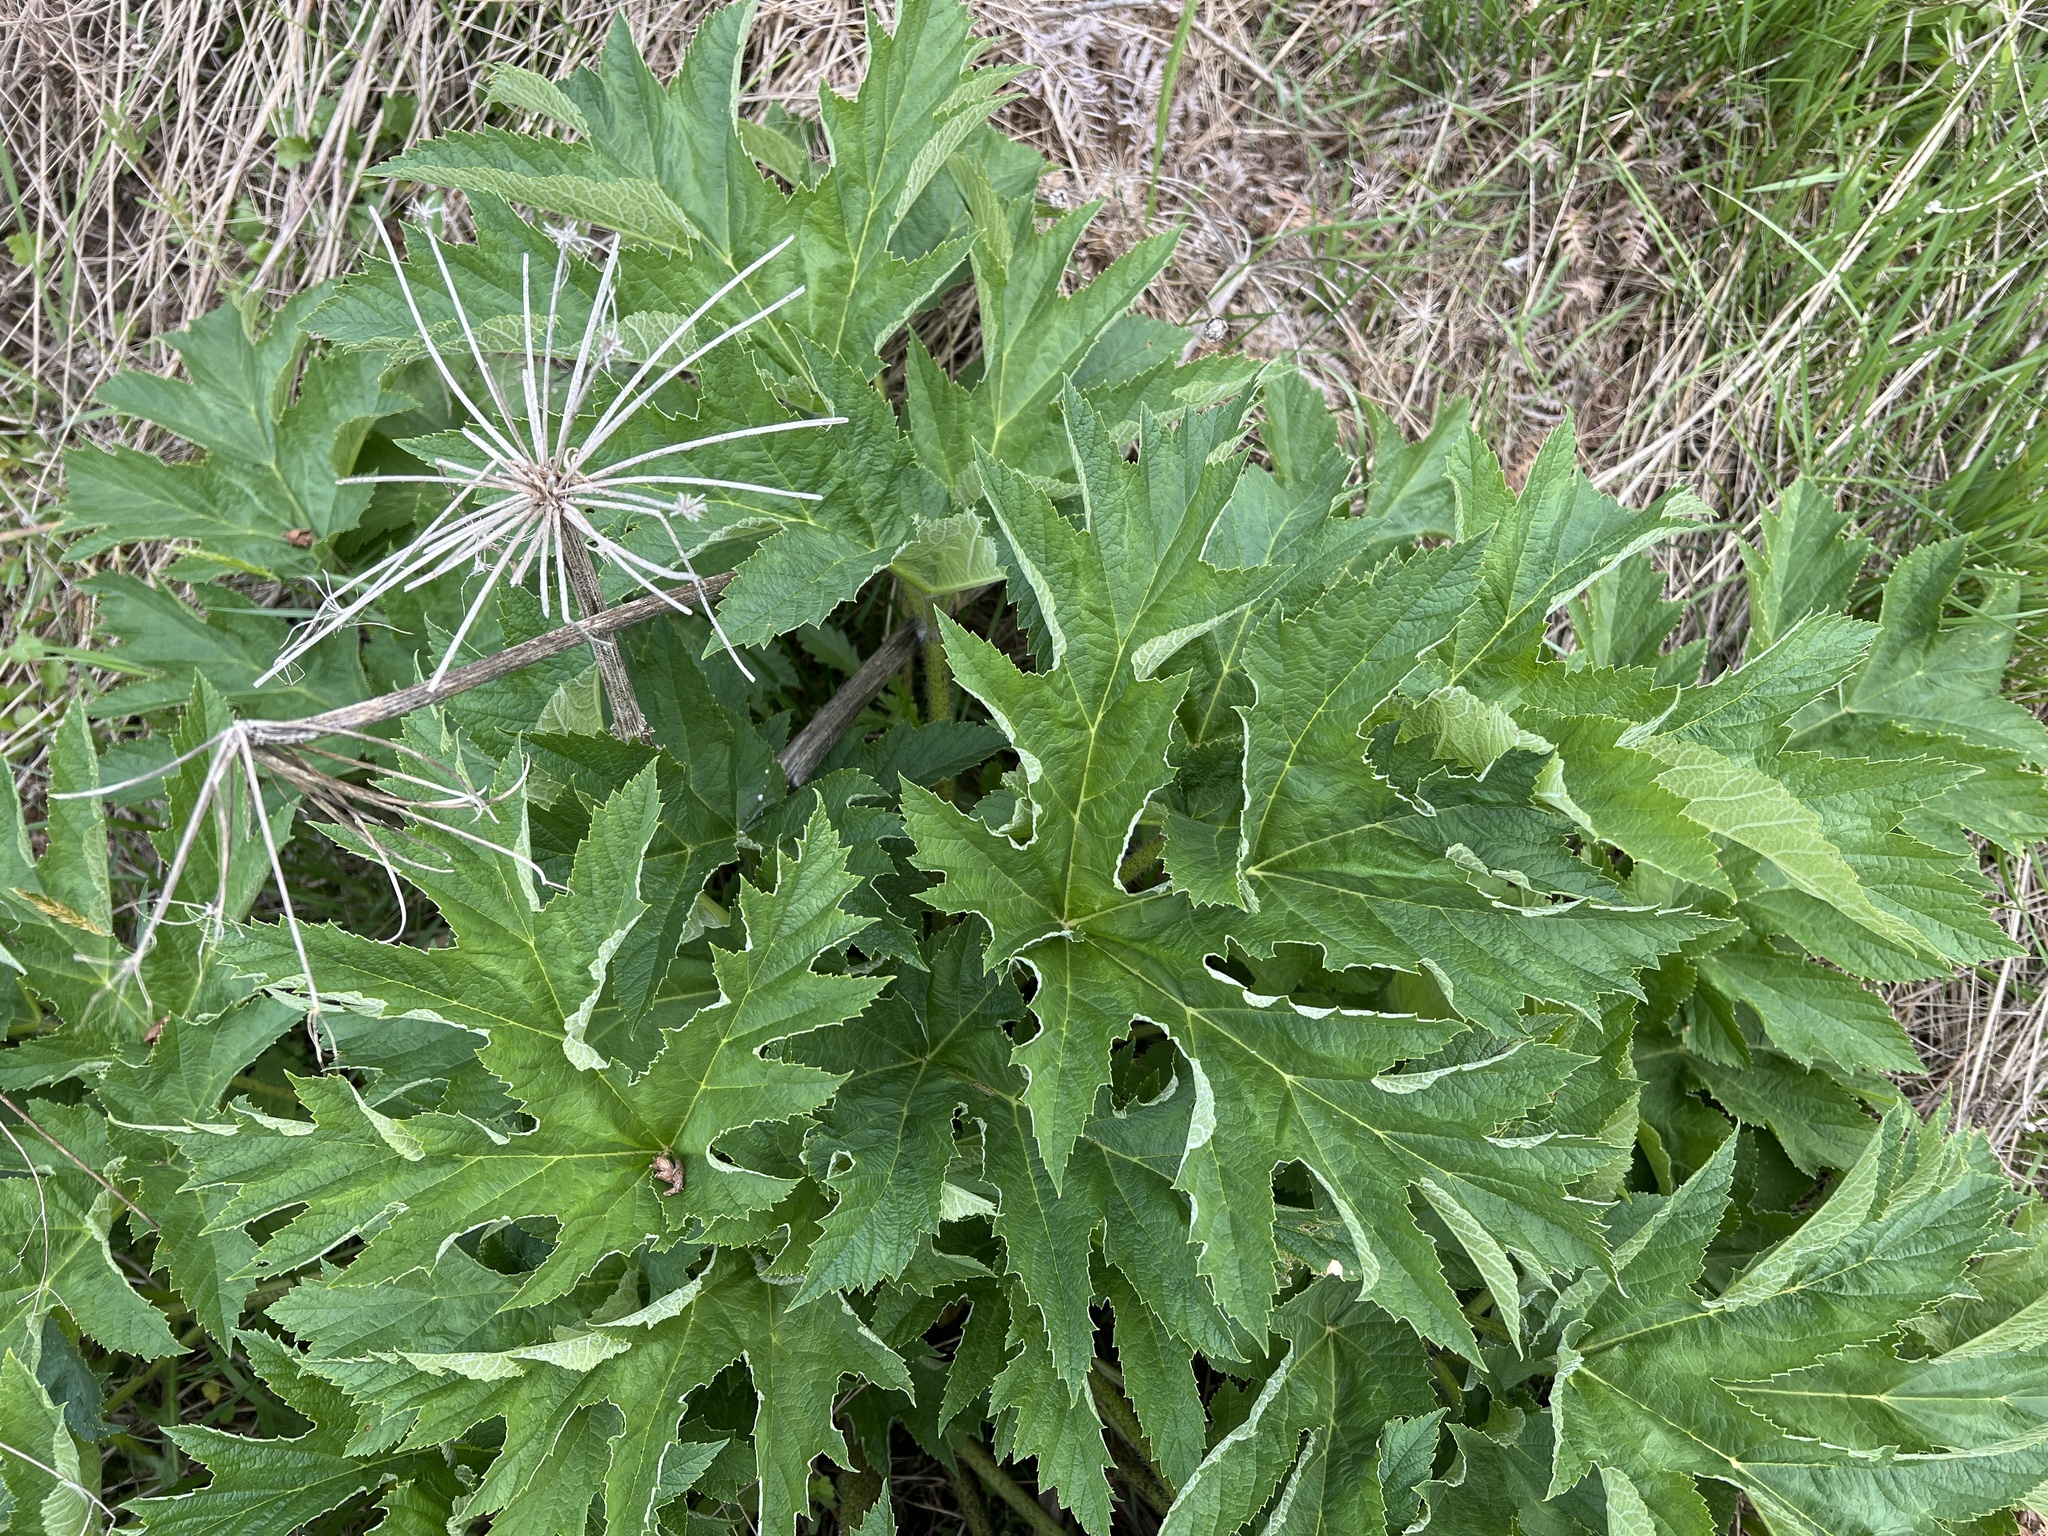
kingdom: Plantae
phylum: Tracheophyta
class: Magnoliopsida
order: Apiales
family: Apiaceae
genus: Heracleum
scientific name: Heracleum maximum
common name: American cow parsnip
